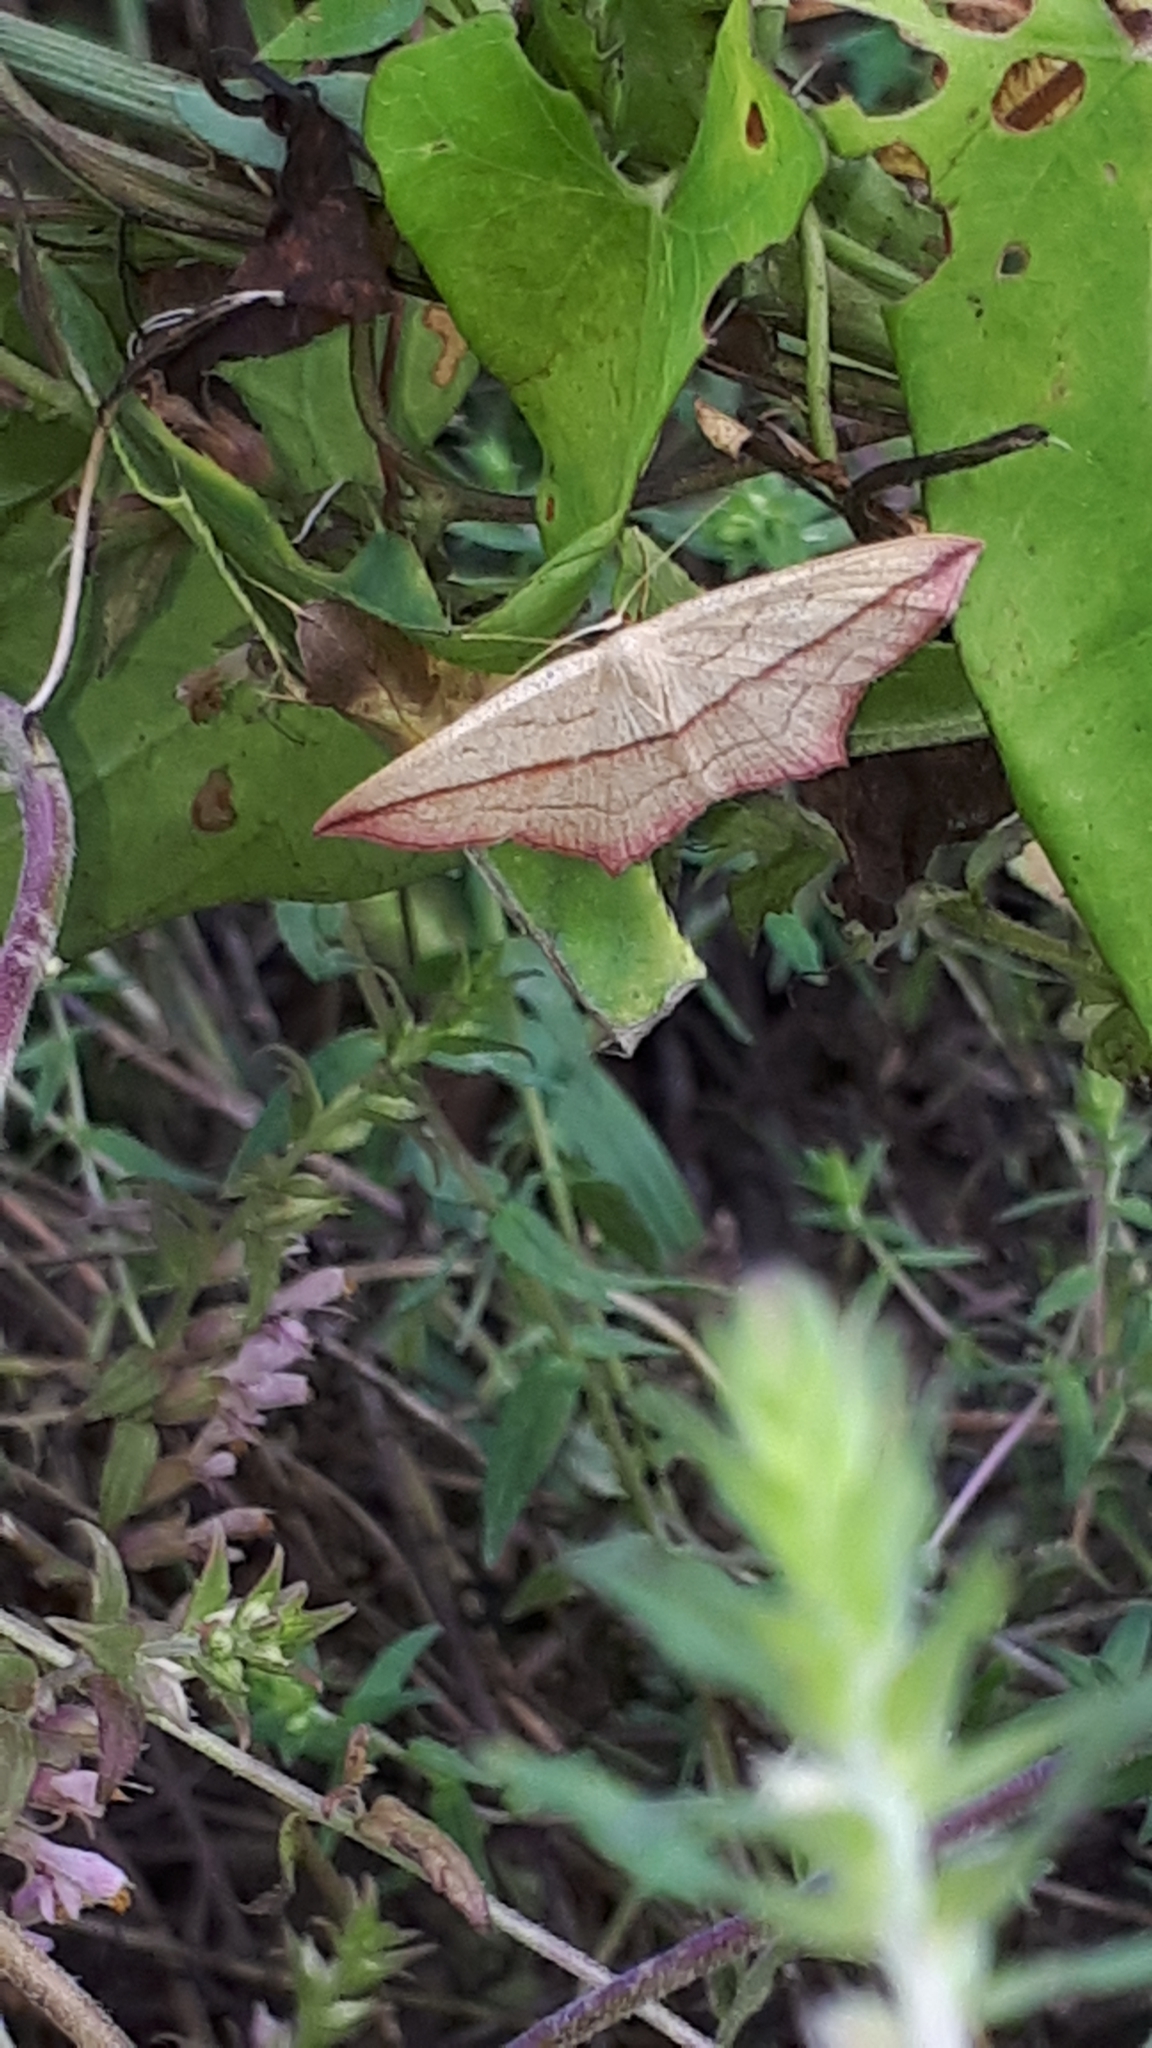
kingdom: Animalia
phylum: Arthropoda
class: Insecta
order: Lepidoptera
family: Geometridae
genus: Timandra
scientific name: Timandra comae
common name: Blood-vein
